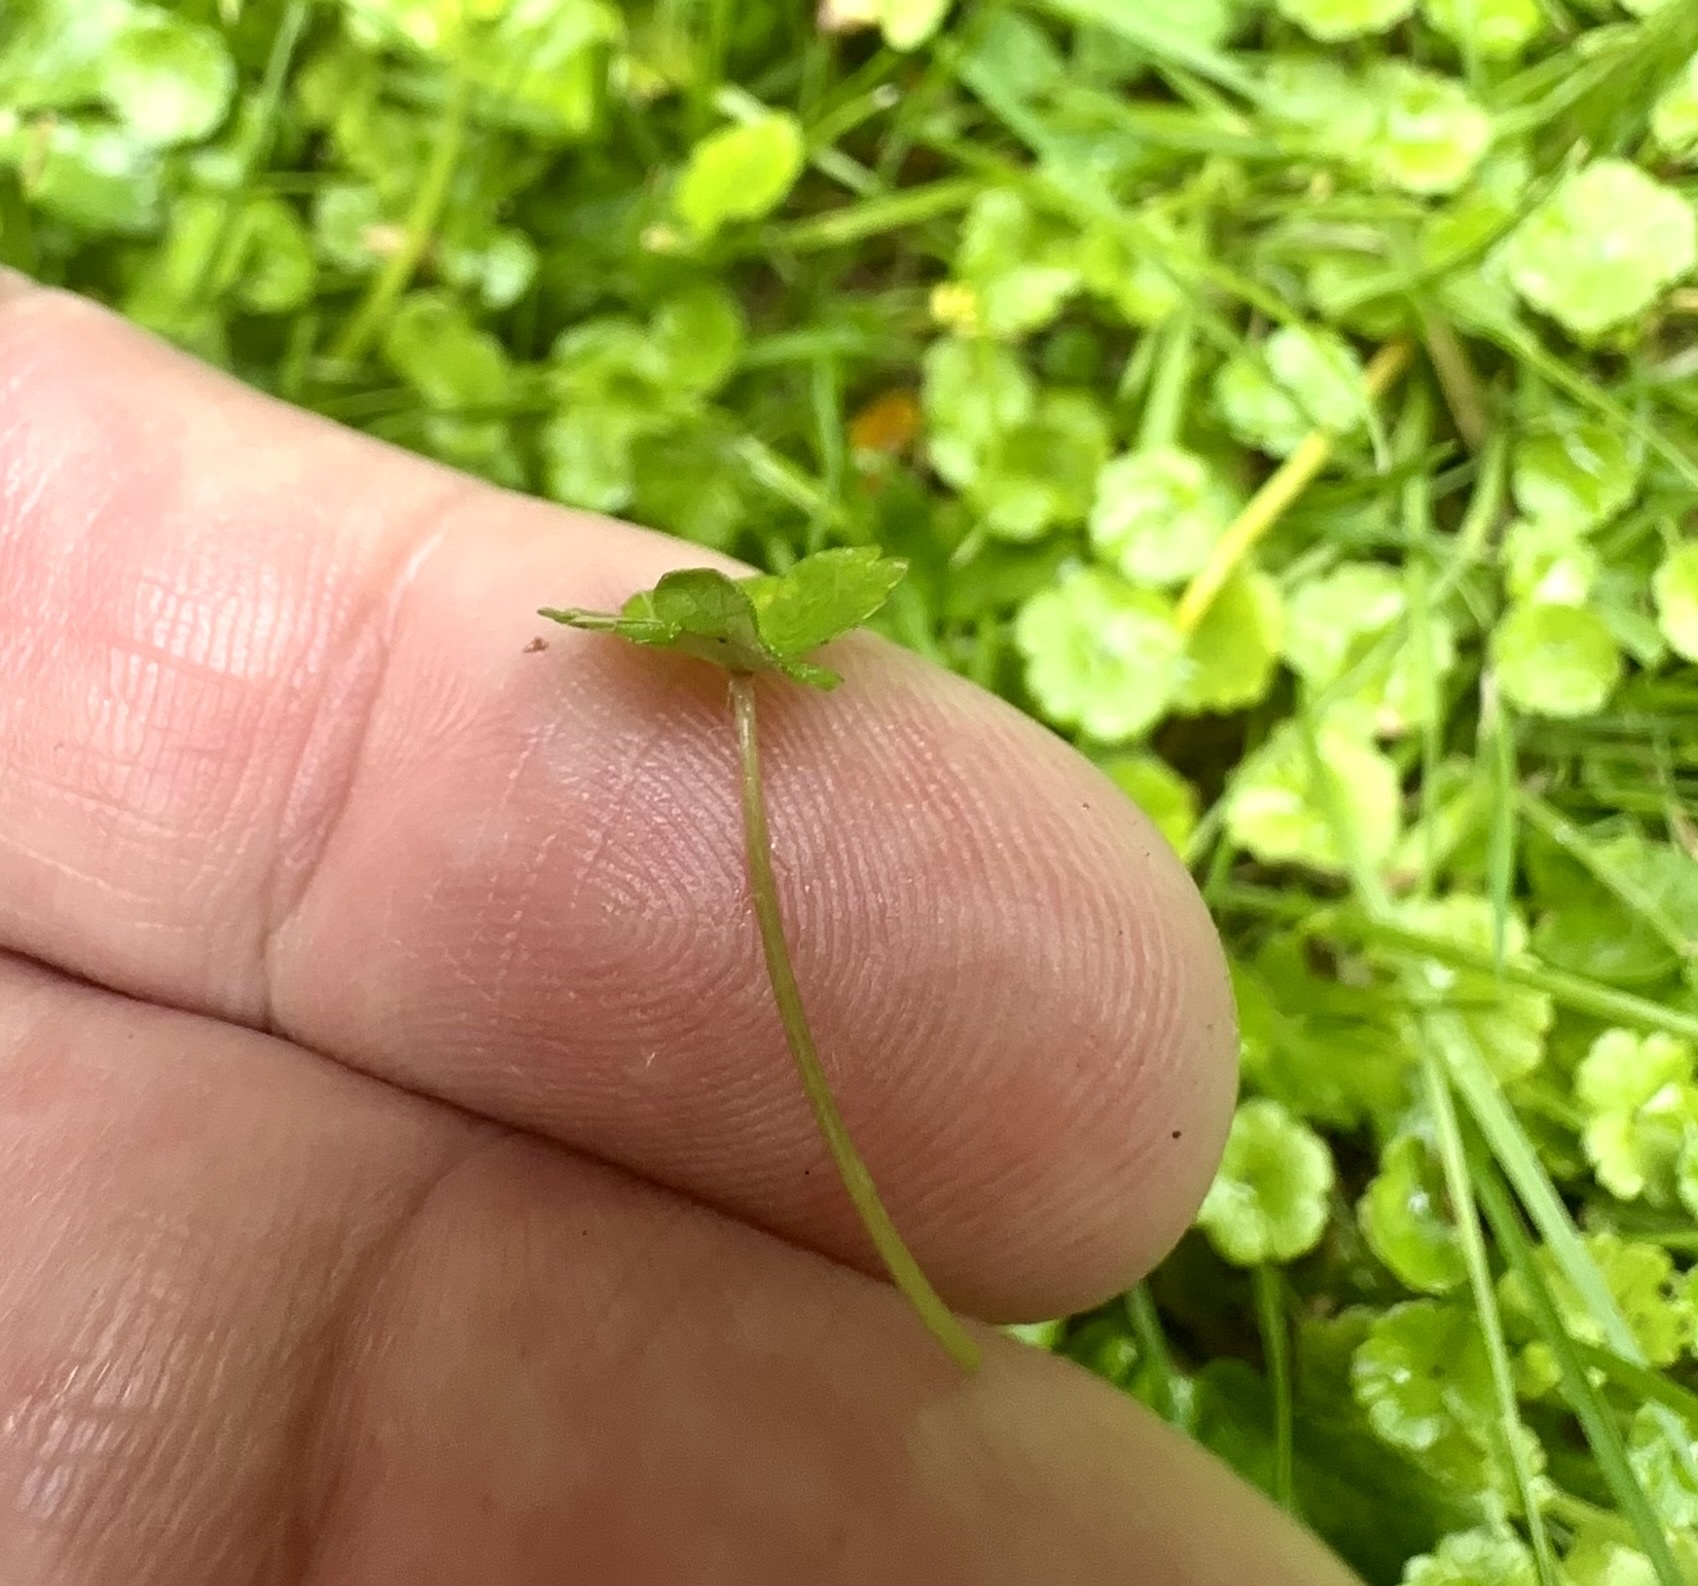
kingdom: Plantae
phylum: Tracheophyta
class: Magnoliopsida
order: Apiales
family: Araliaceae
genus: Hydrocotyle
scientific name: Hydrocotyle heteromeria
